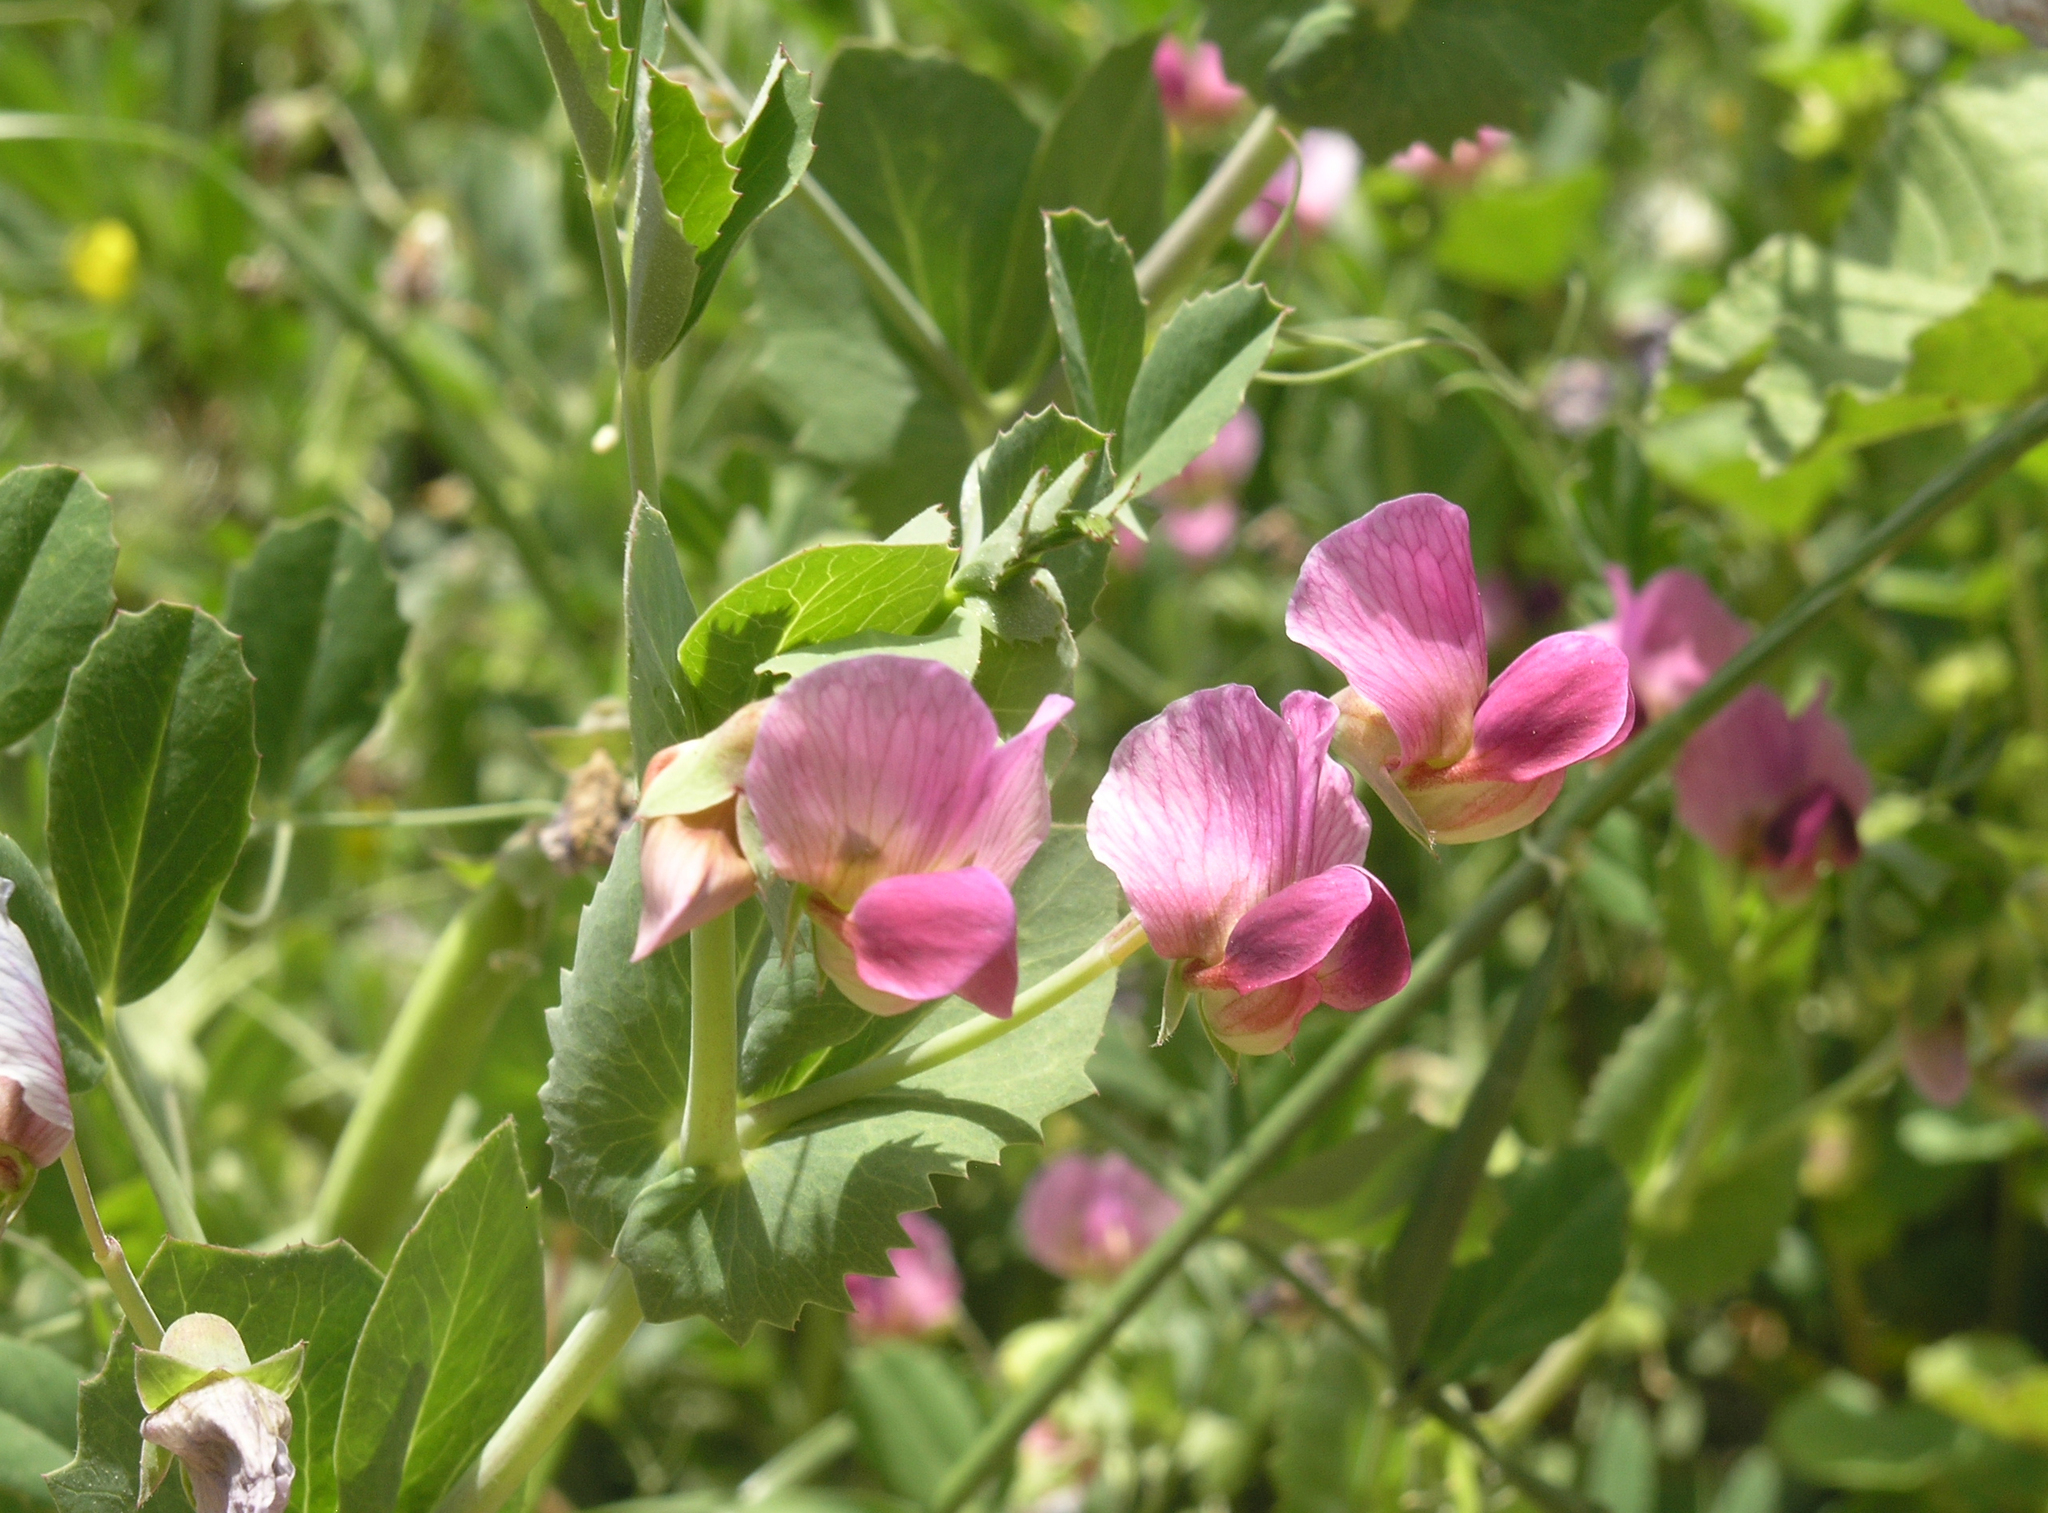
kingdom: Plantae
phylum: Tracheophyta
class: Magnoliopsida
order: Fabales
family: Fabaceae
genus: Lathyrus
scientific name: Lathyrus oleraceus
